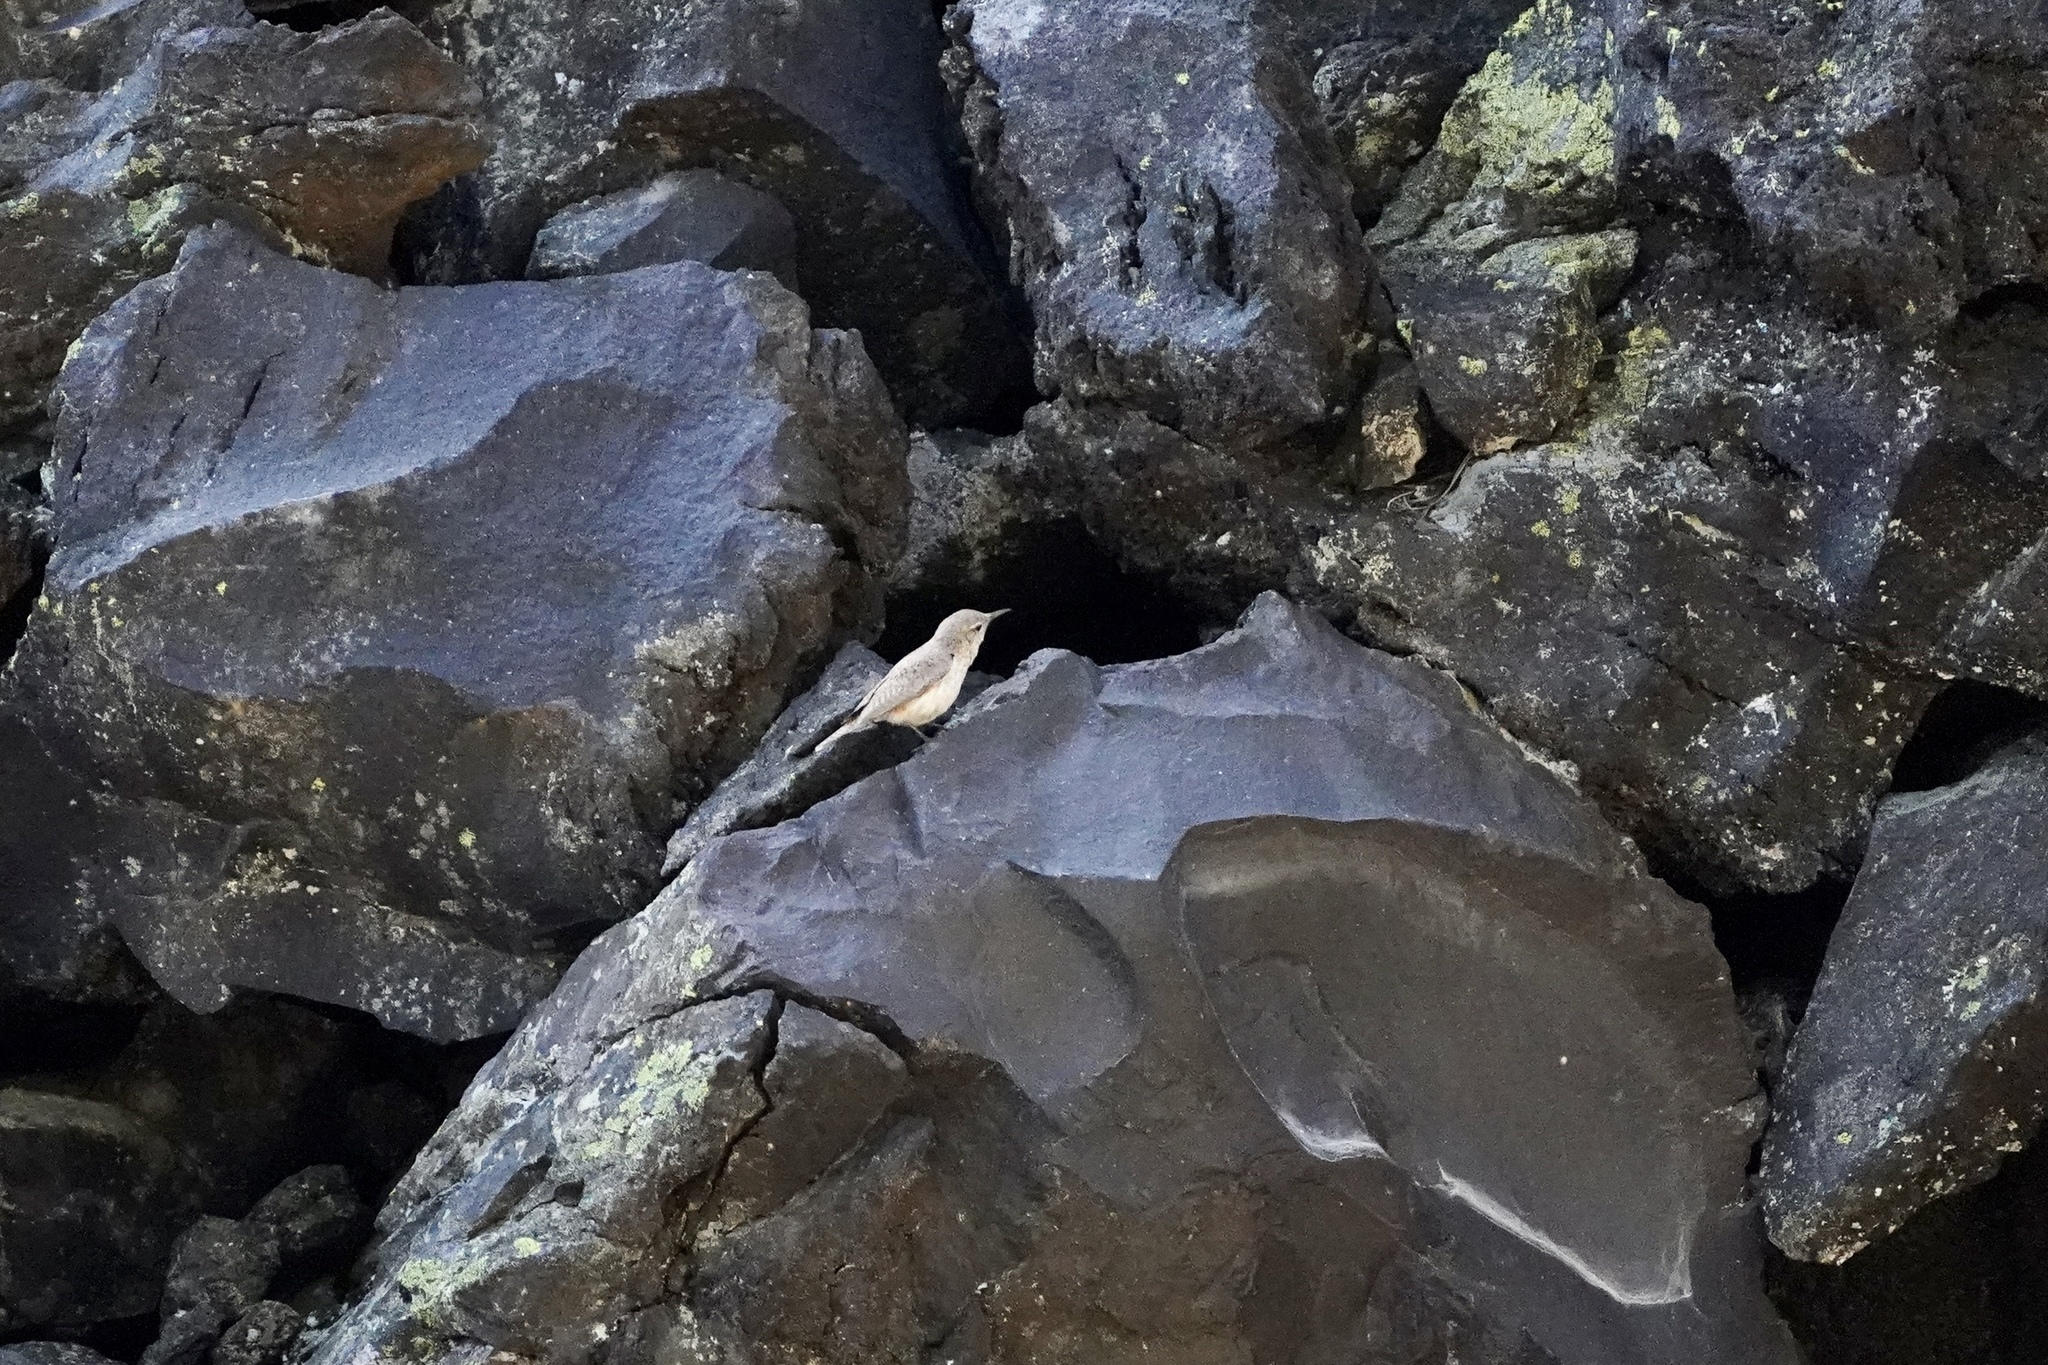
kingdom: Animalia
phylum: Chordata
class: Aves
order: Passeriformes
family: Troglodytidae
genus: Salpinctes
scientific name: Salpinctes obsoletus
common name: Rock wren
